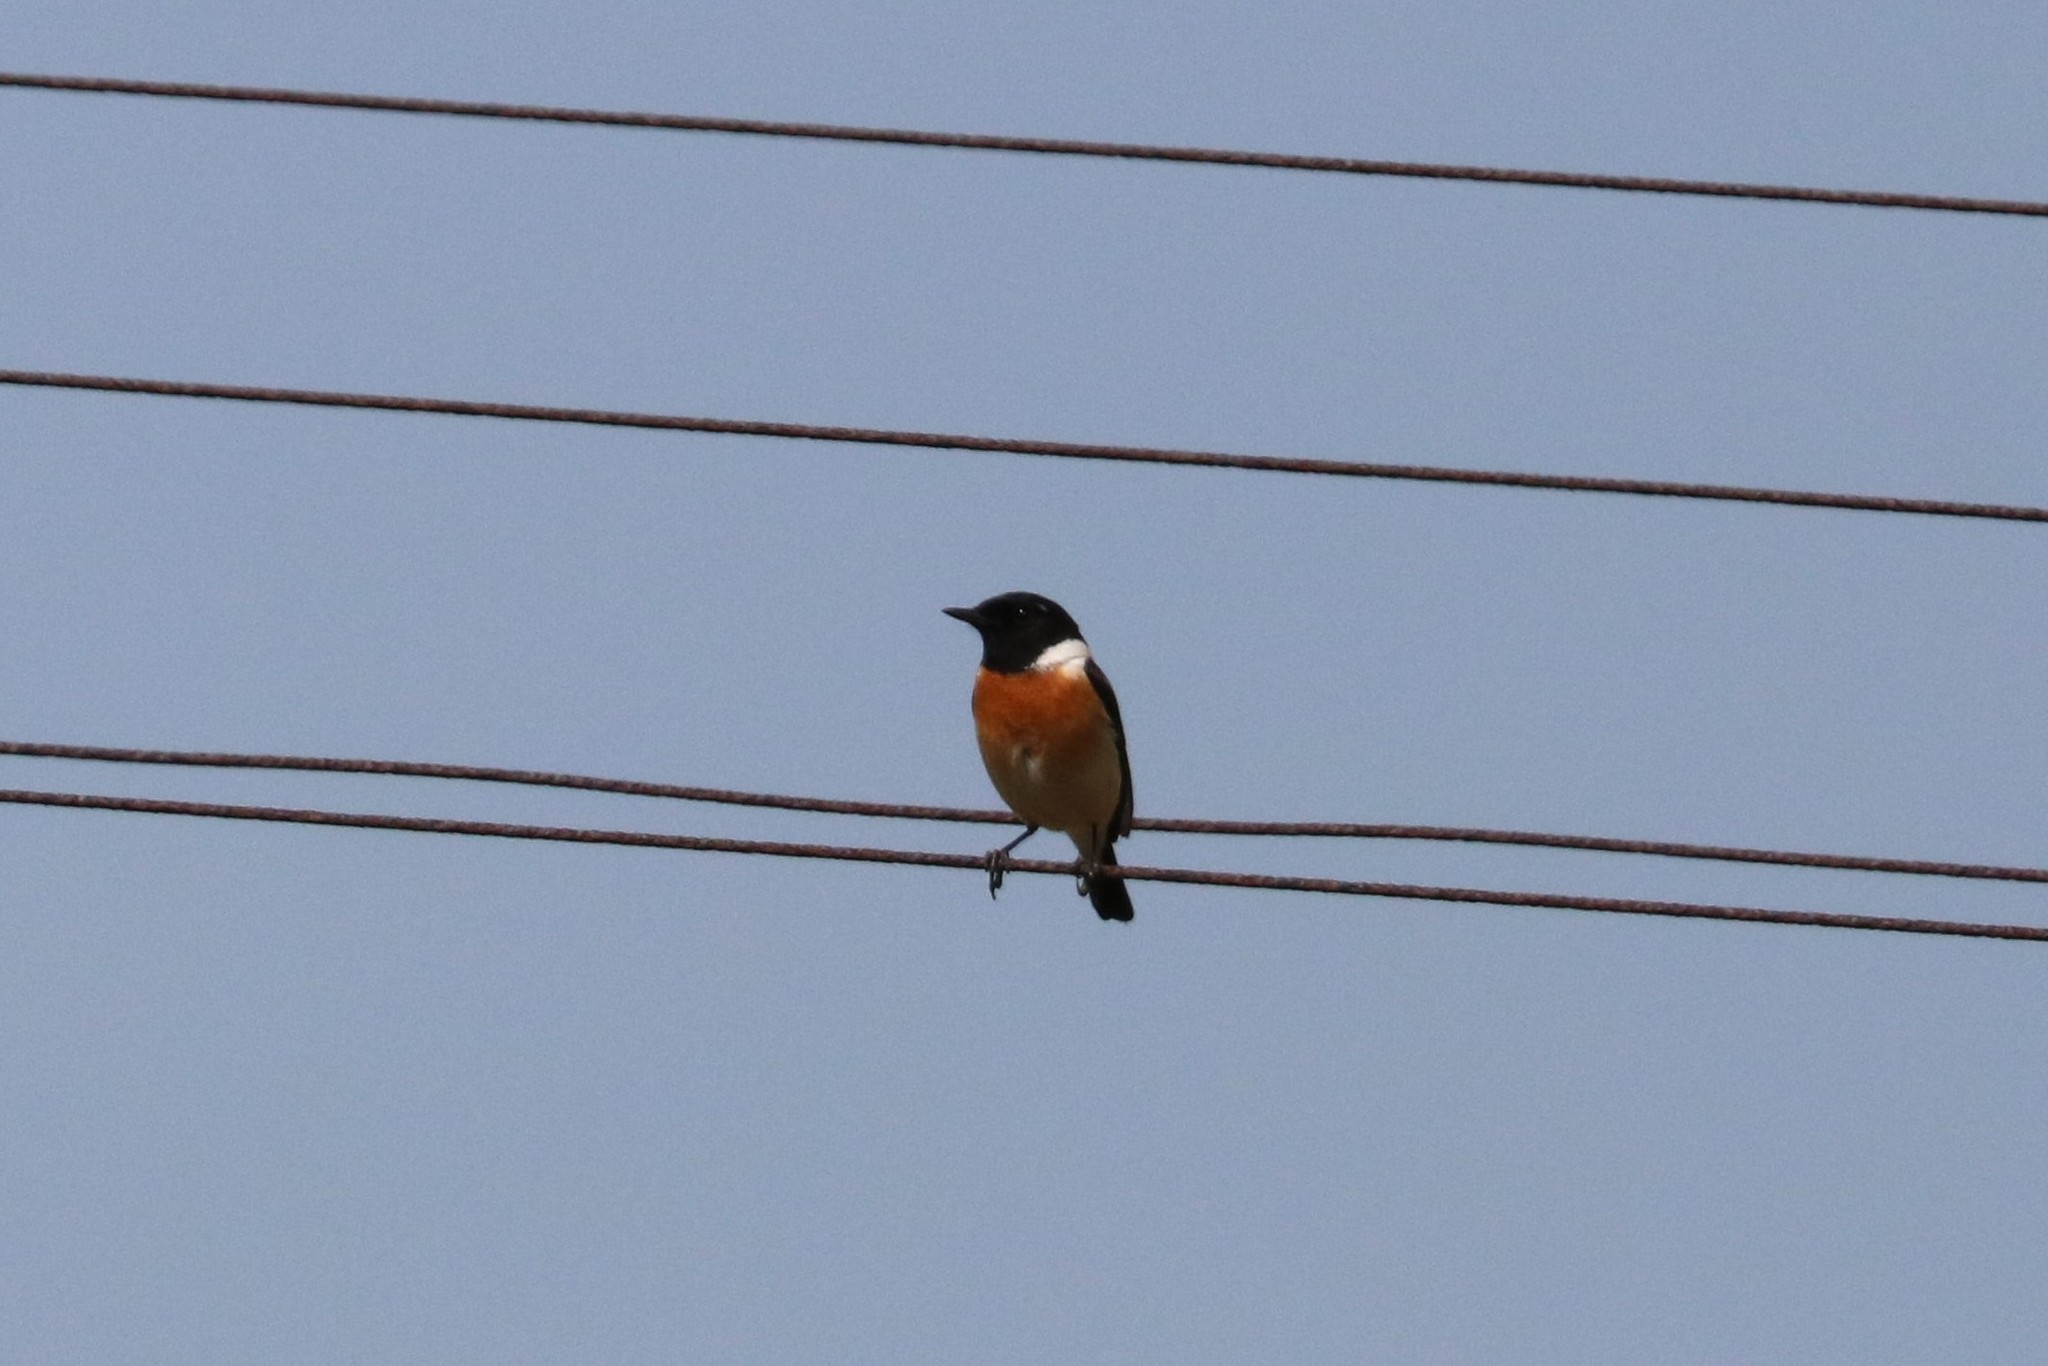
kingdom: Animalia
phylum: Chordata
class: Aves
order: Passeriformes
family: Muscicapidae
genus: Saxicola
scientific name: Saxicola maurus
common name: Siberian stonechat
